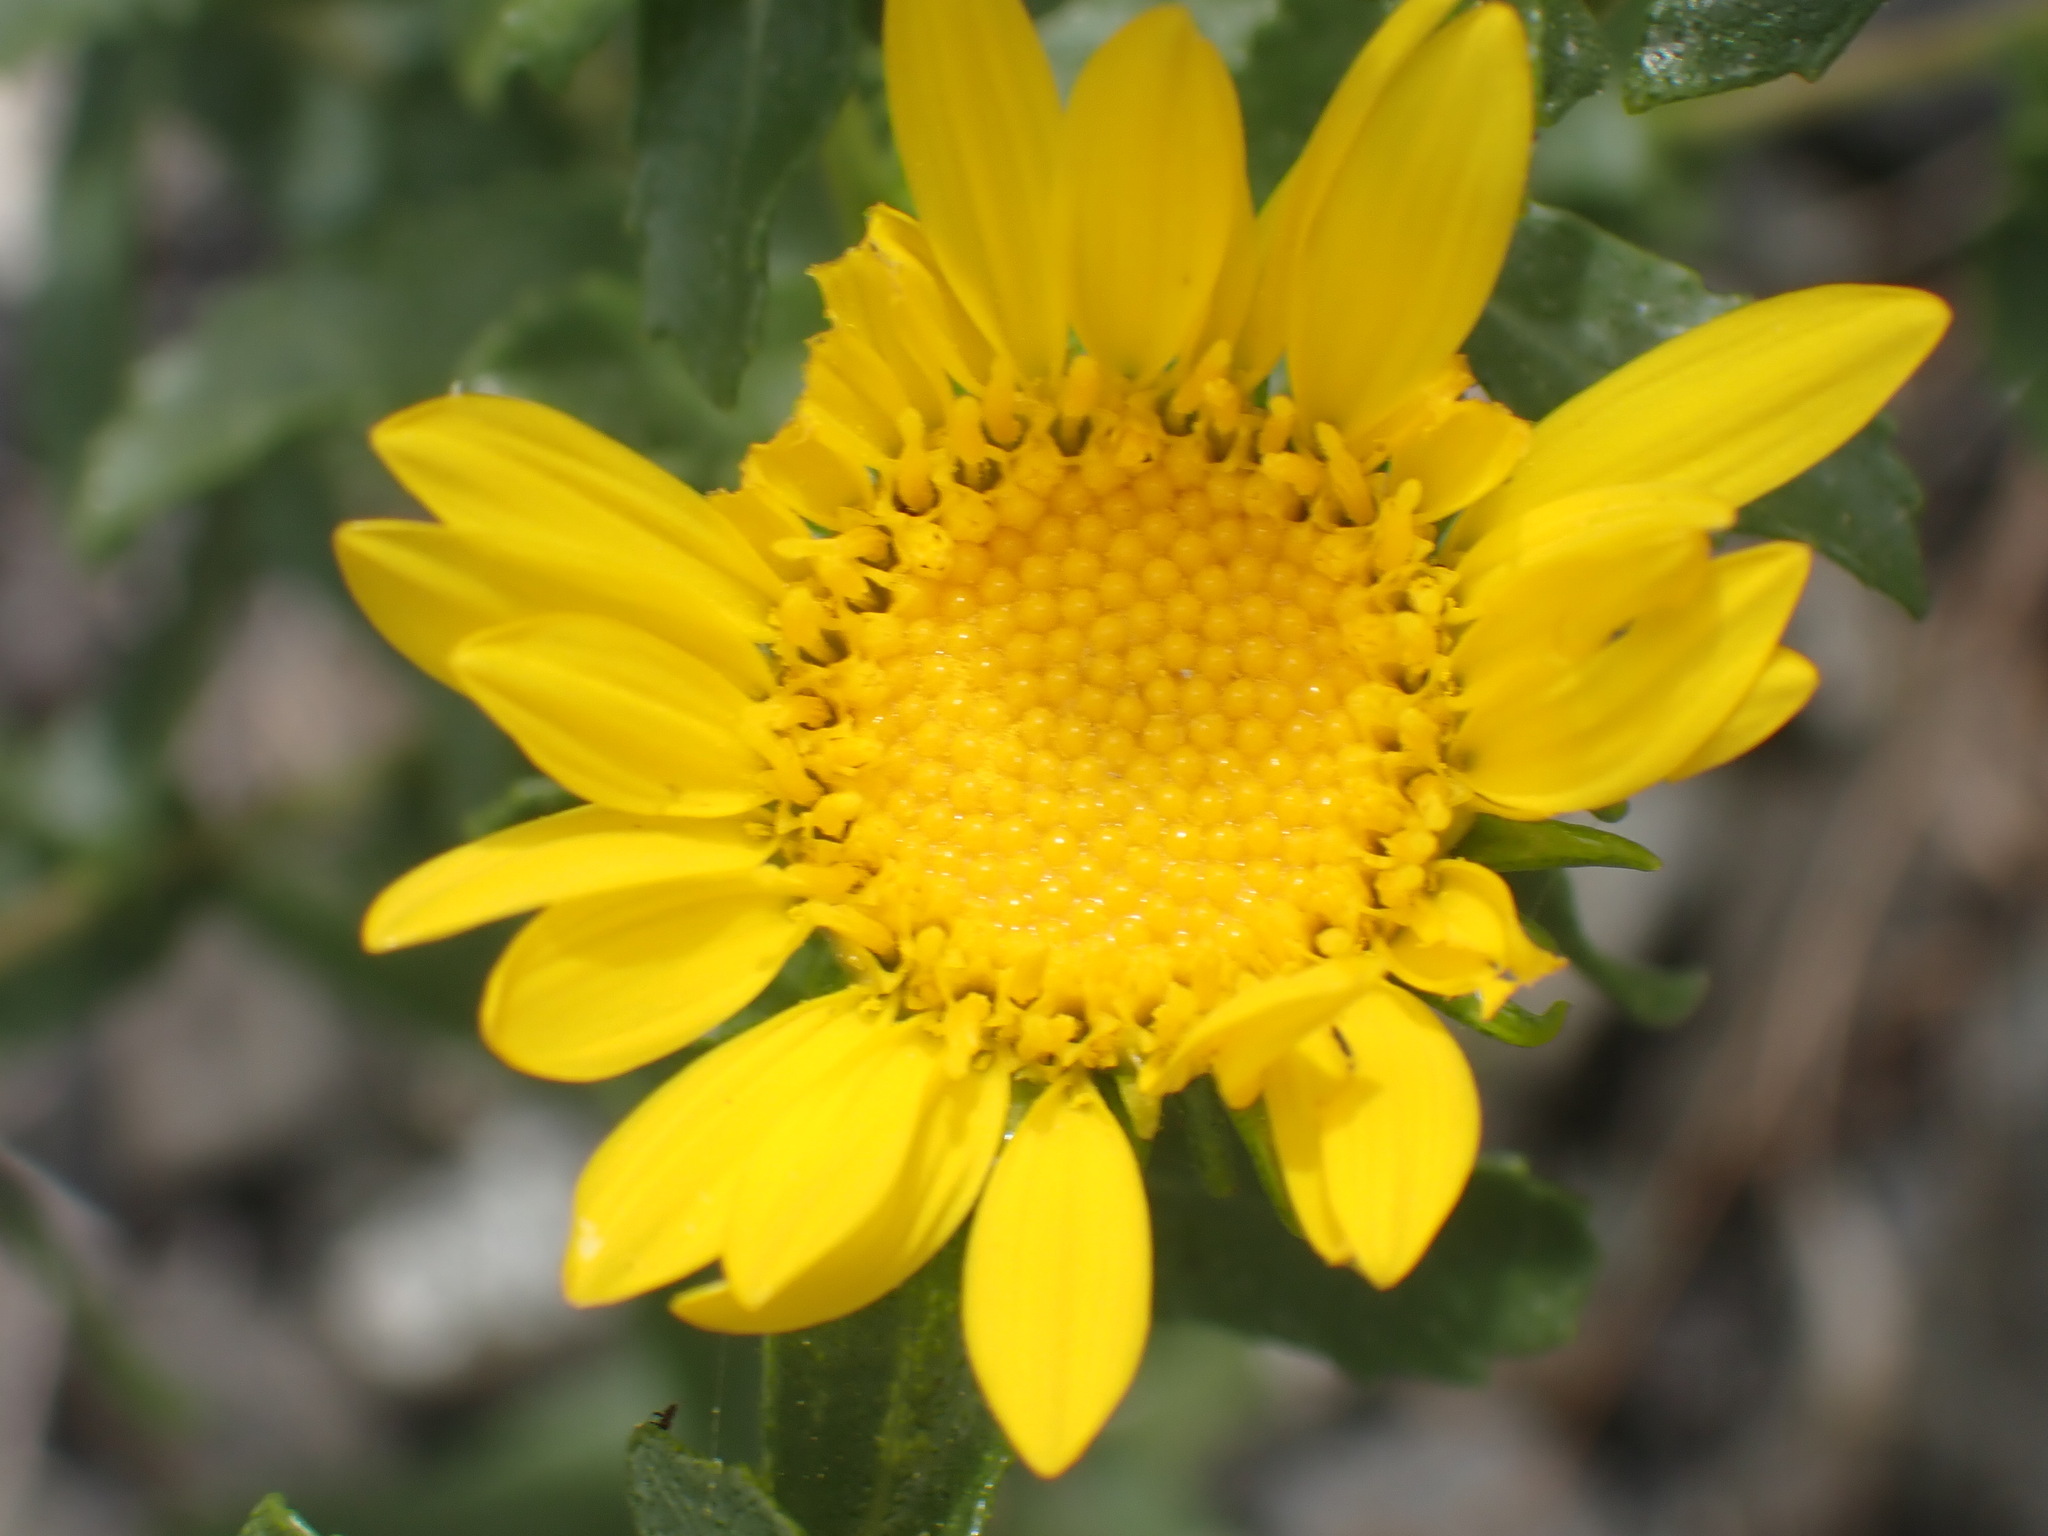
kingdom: Plantae
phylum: Tracheophyta
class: Magnoliopsida
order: Asterales
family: Asteraceae
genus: Grindelia
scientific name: Grindelia squarrosa
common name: Curly-cup gumweed
